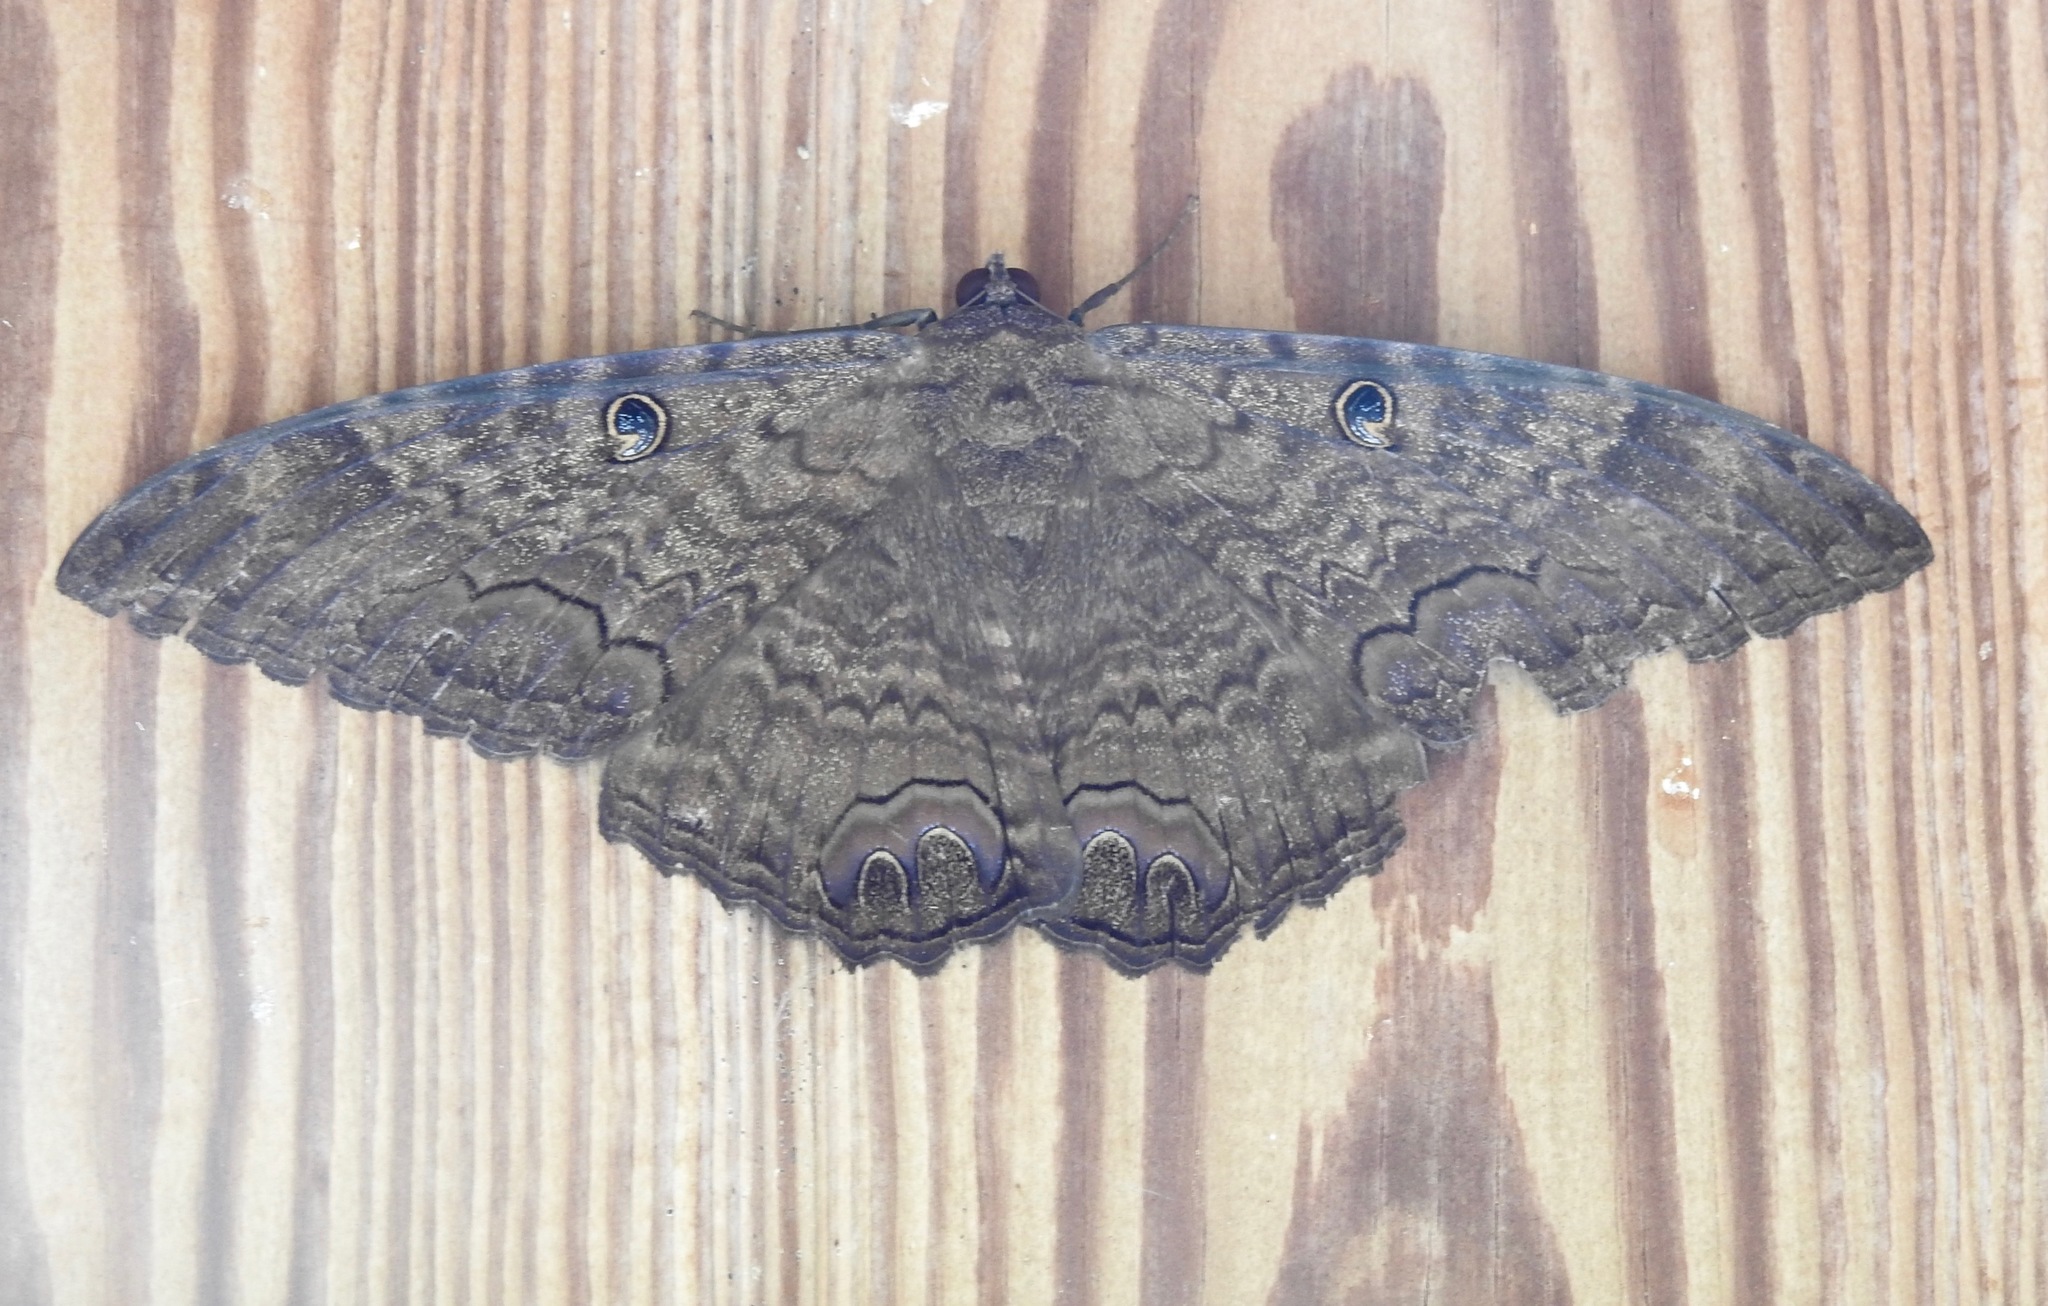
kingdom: Animalia
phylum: Arthropoda
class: Insecta
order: Lepidoptera
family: Erebidae
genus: Ascalapha
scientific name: Ascalapha odorata
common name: Black witch
